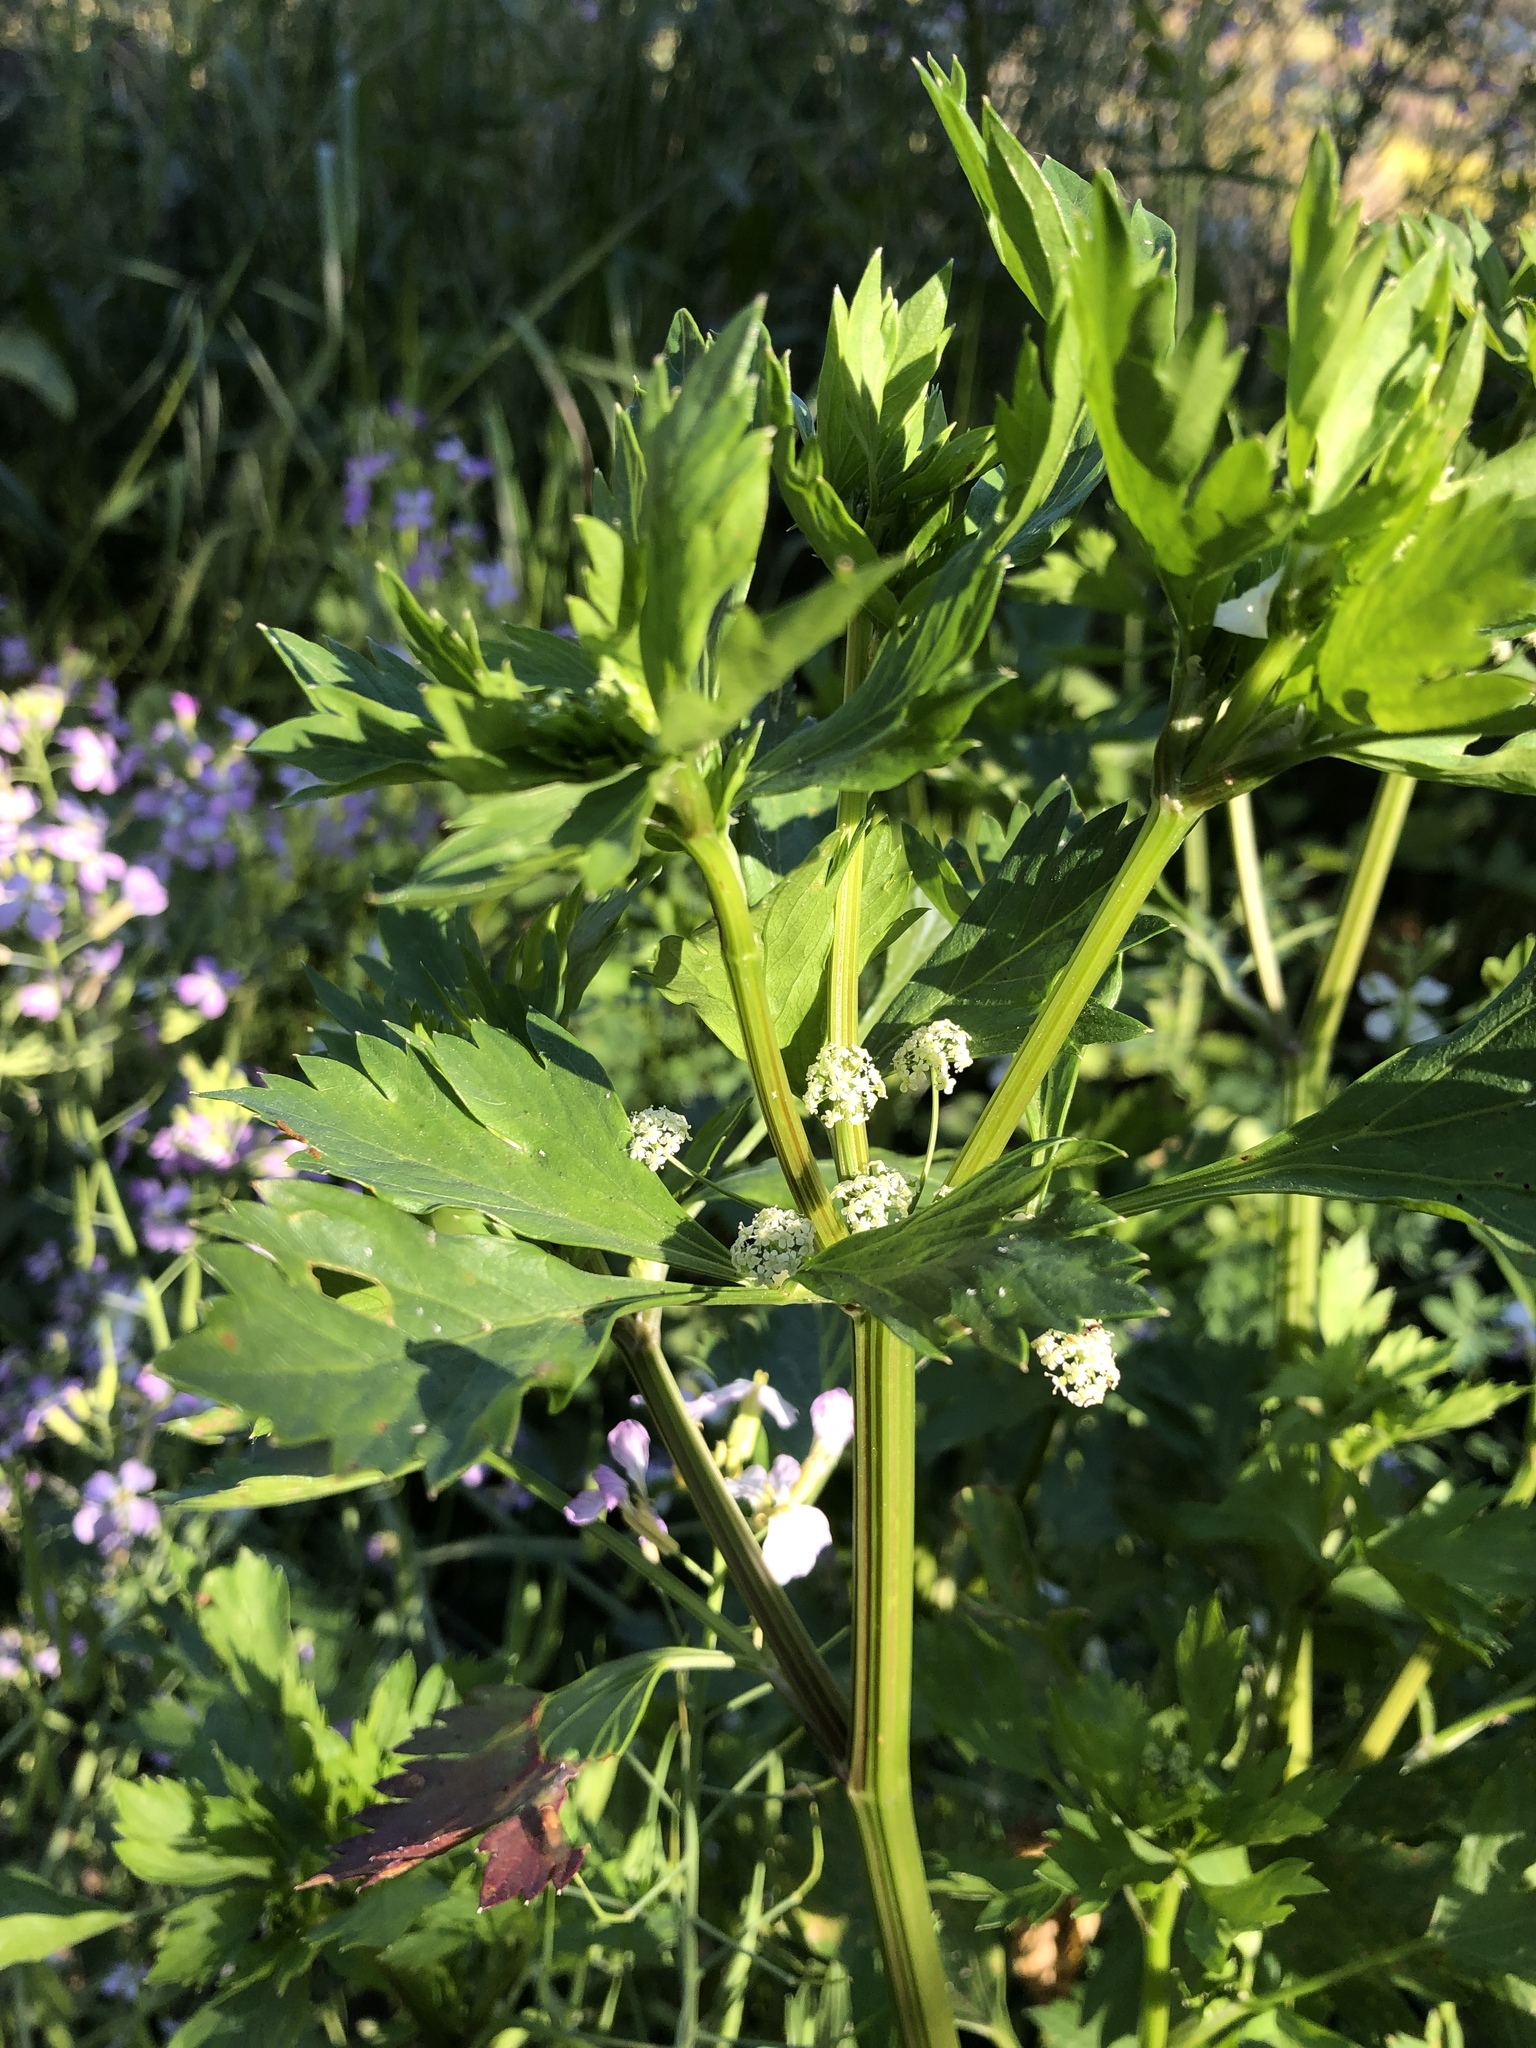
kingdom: Plantae
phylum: Tracheophyta
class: Magnoliopsida
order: Apiales
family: Apiaceae
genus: Apium
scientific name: Apium graveolens
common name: Wild celery
